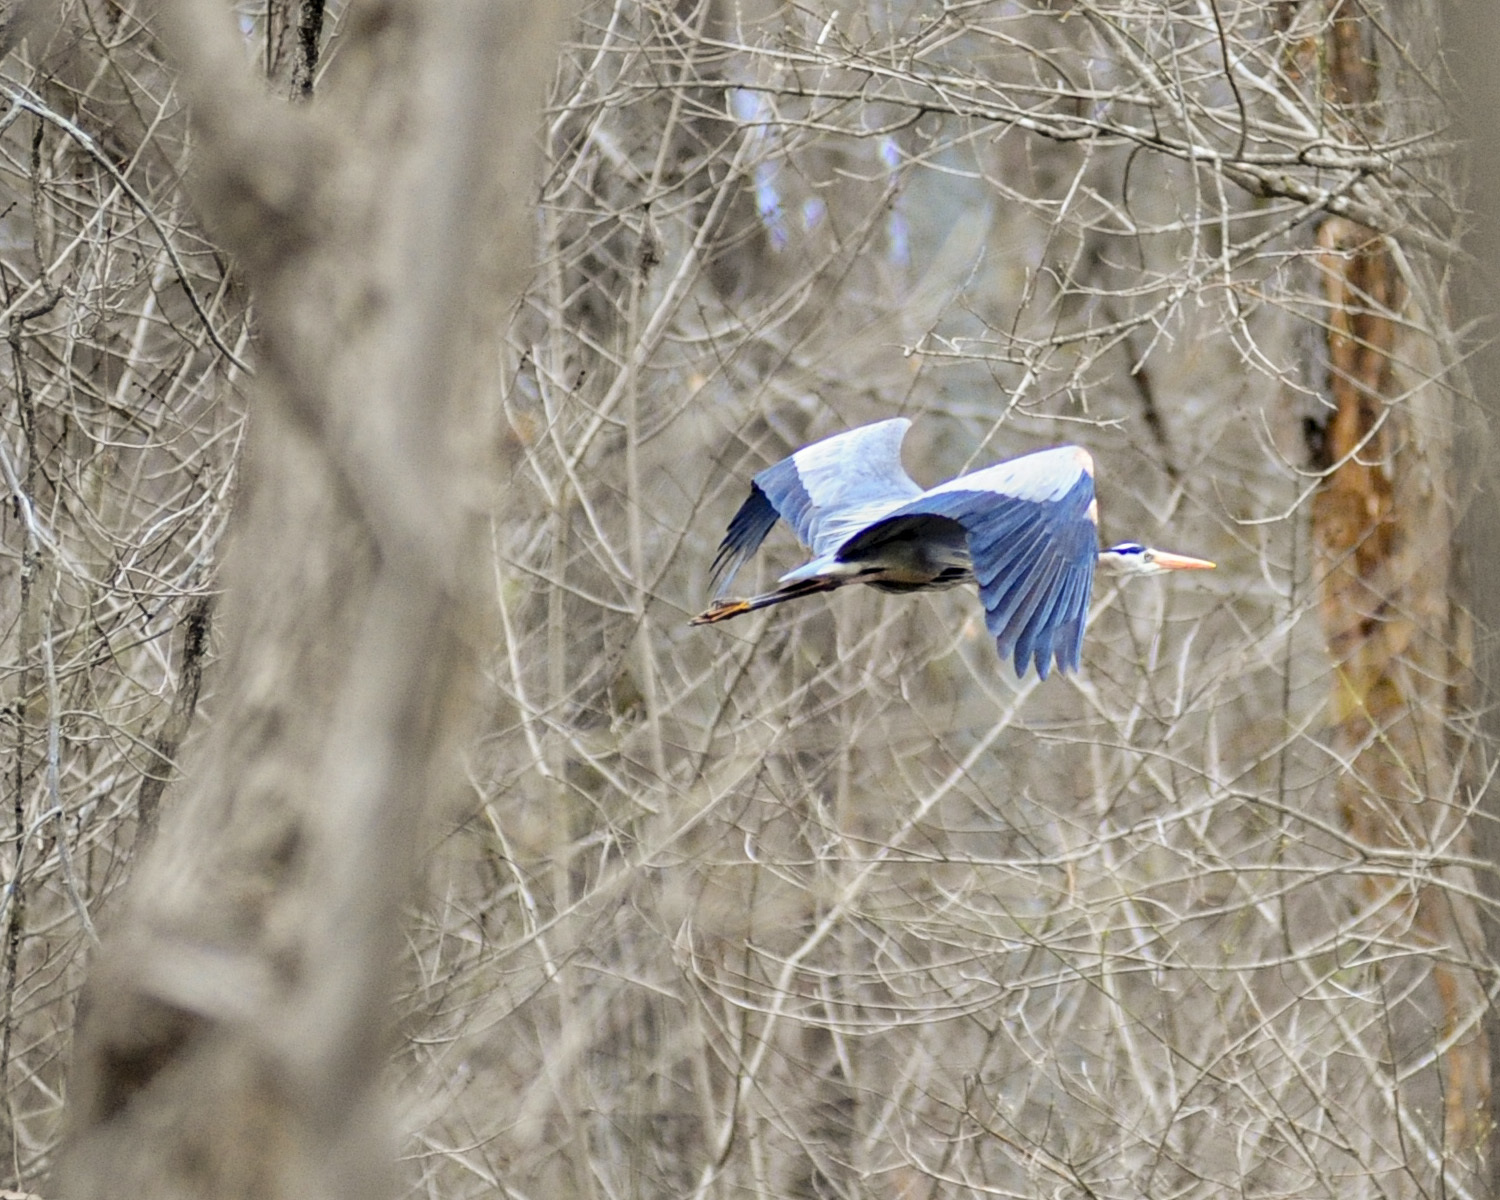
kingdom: Animalia
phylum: Chordata
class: Aves
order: Pelecaniformes
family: Ardeidae
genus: Ardea
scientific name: Ardea herodias
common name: Great blue heron
